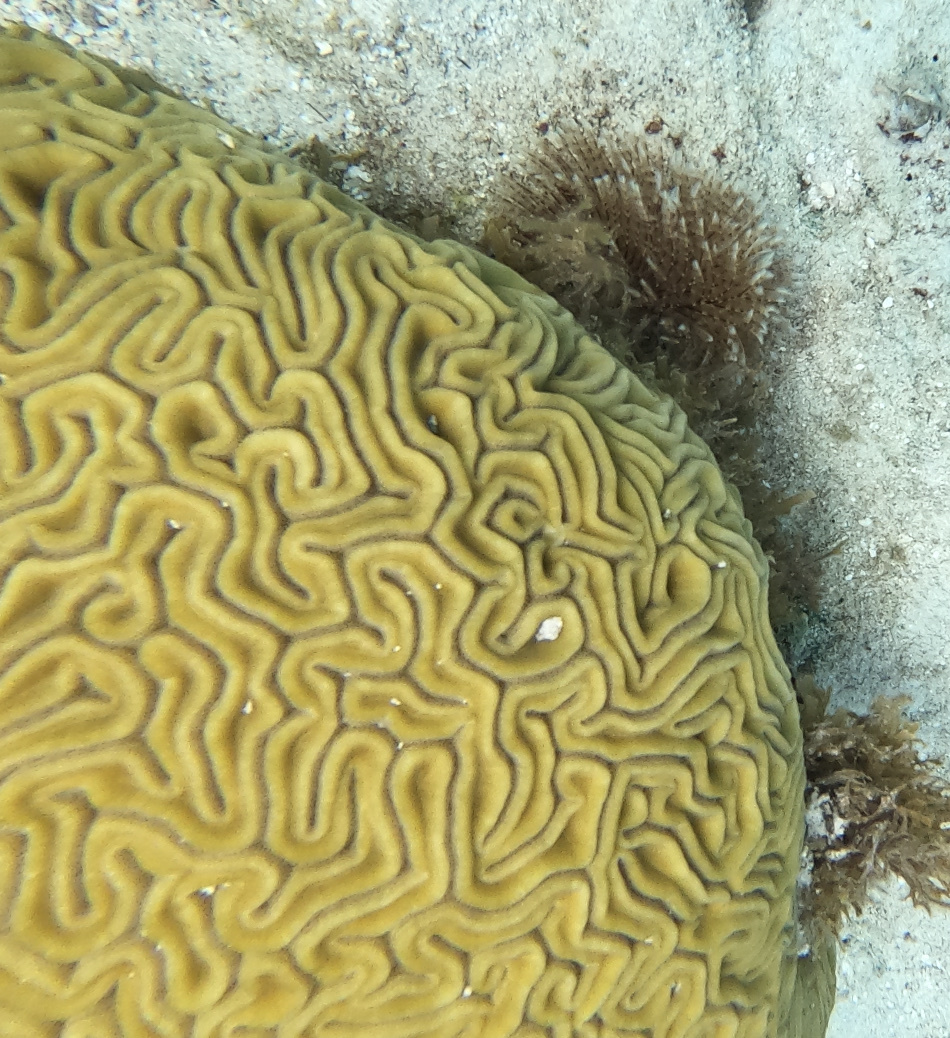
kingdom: Animalia
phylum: Cnidaria
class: Anthozoa
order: Scleractinia
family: Faviidae
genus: Diploria
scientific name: Diploria labyrinthiformis
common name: Grooved brain coral
